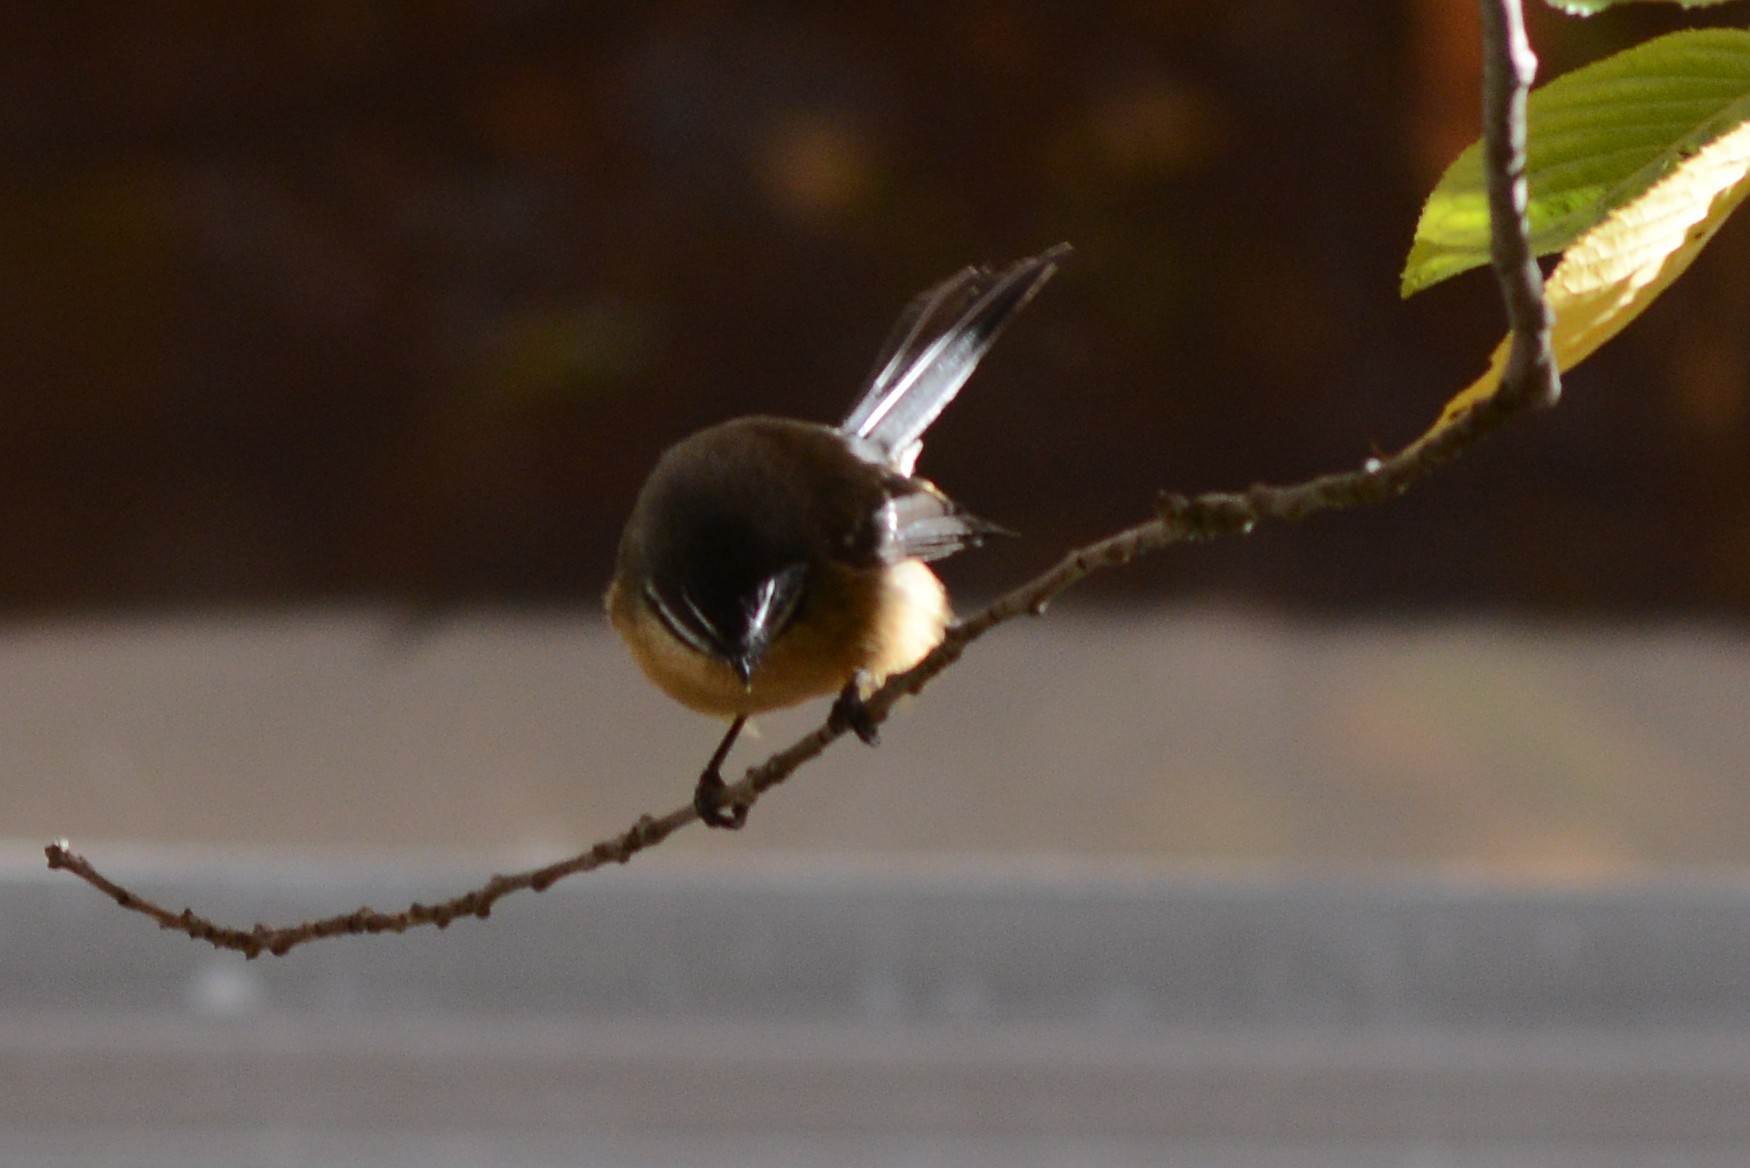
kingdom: Animalia
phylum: Chordata
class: Aves
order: Passeriformes
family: Rhipiduridae
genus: Rhipidura
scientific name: Rhipidura fuliginosa
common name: New zealand fantail
